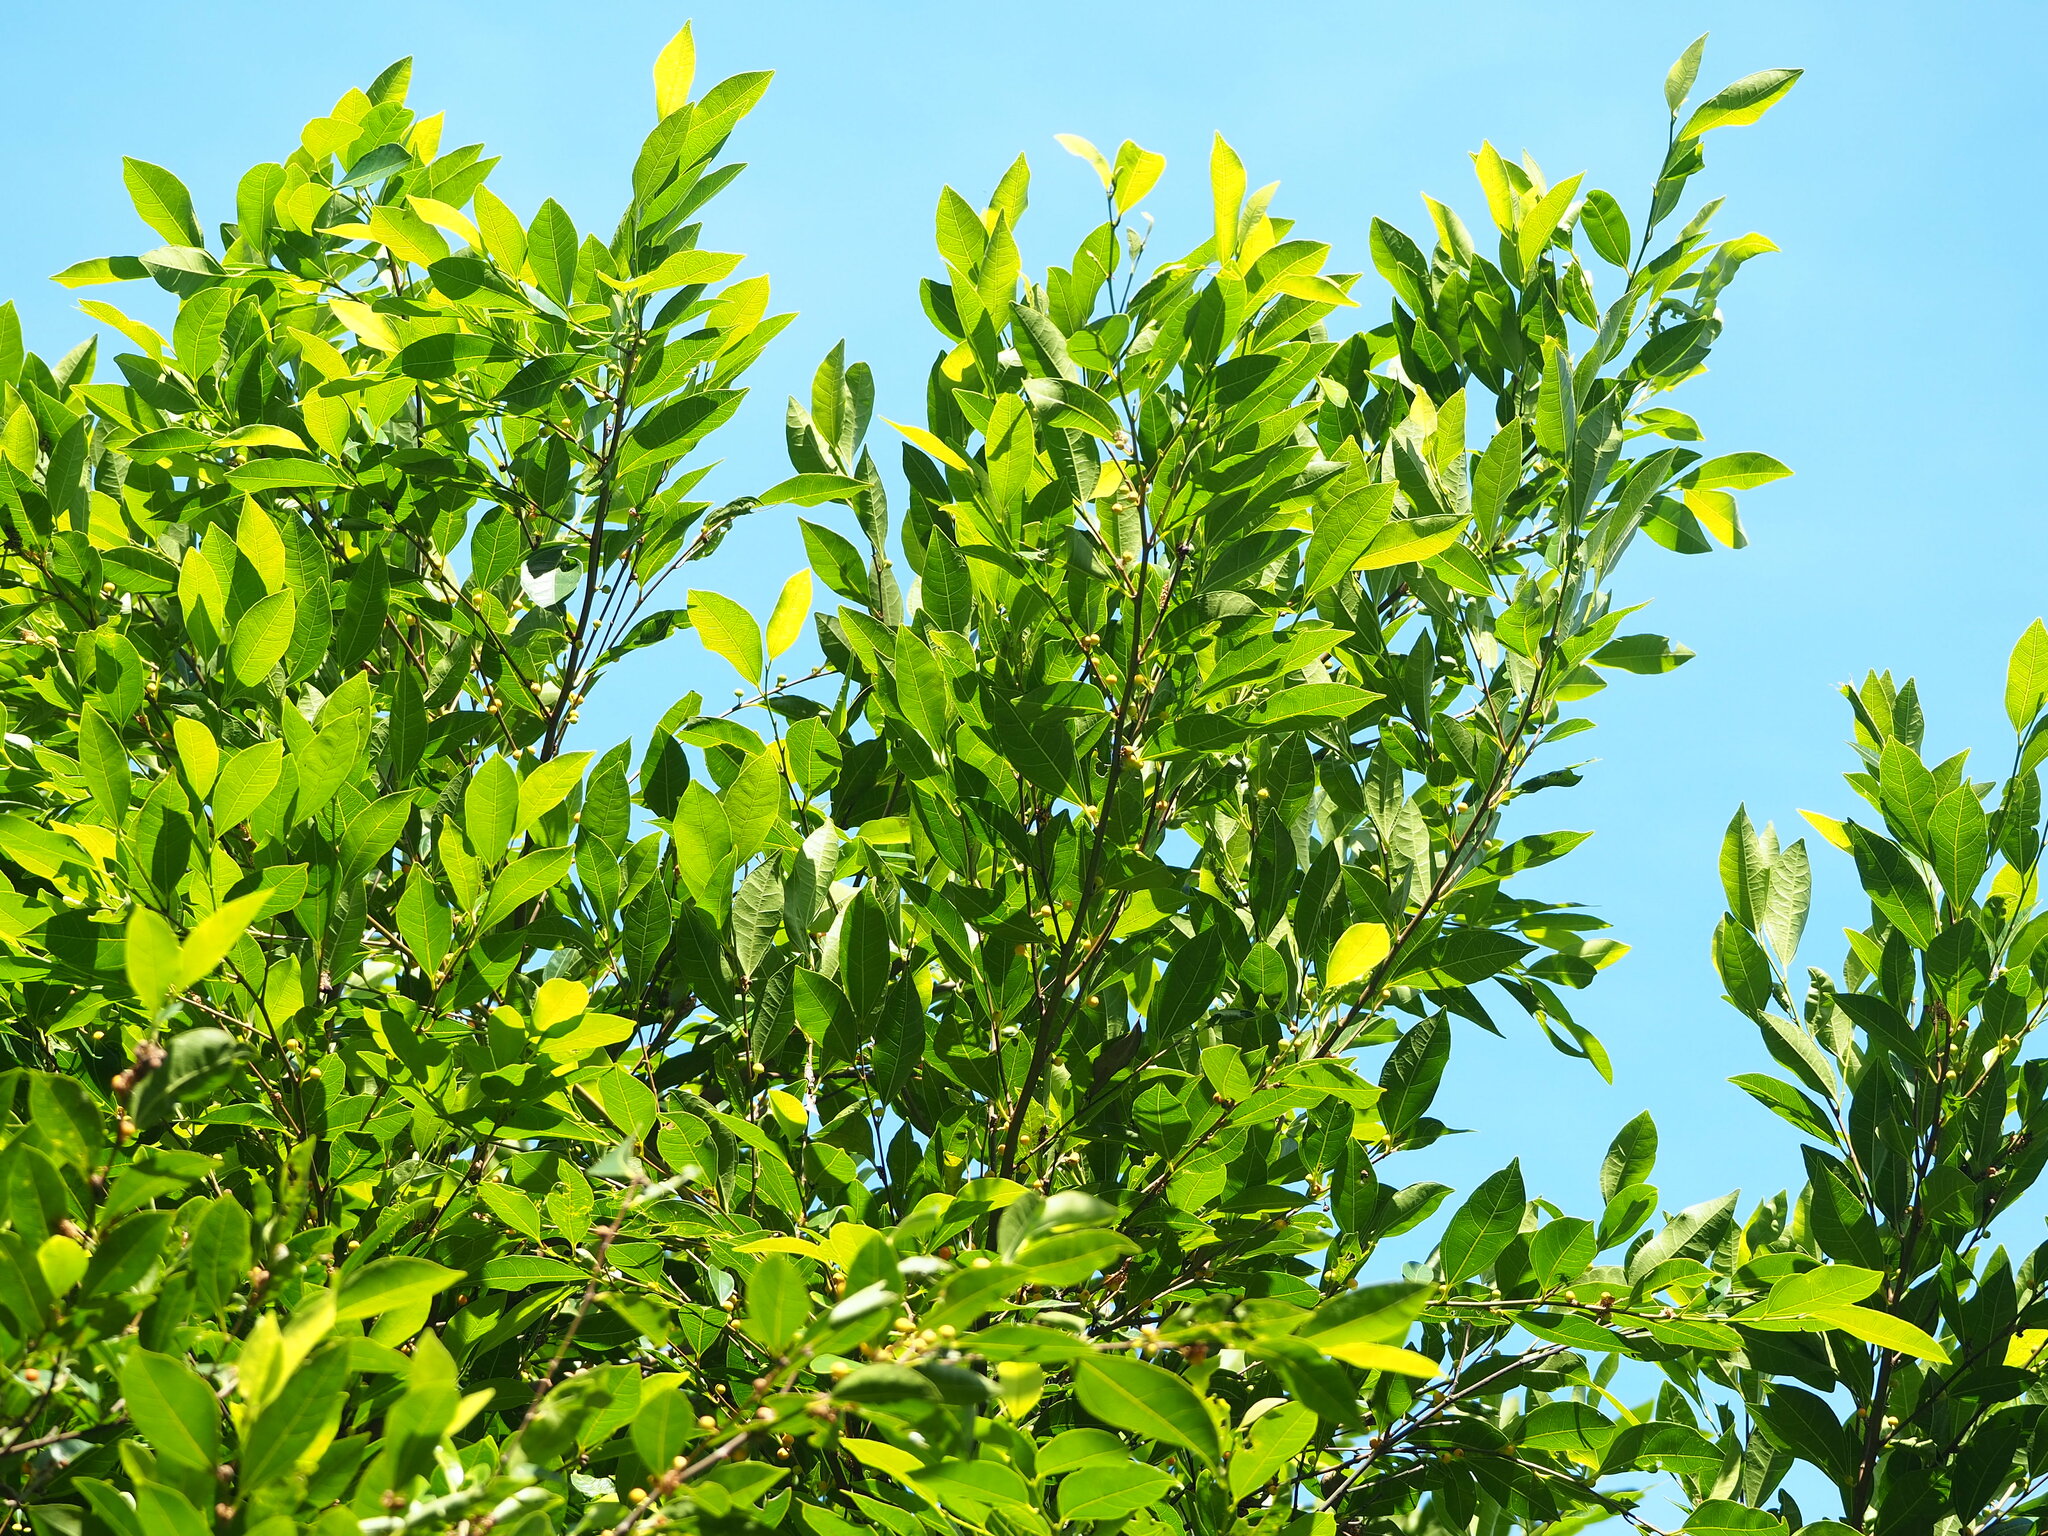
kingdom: Plantae
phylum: Tracheophyta
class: Magnoliopsida
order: Rosales
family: Moraceae
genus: Ficus
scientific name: Ficus ampelos
